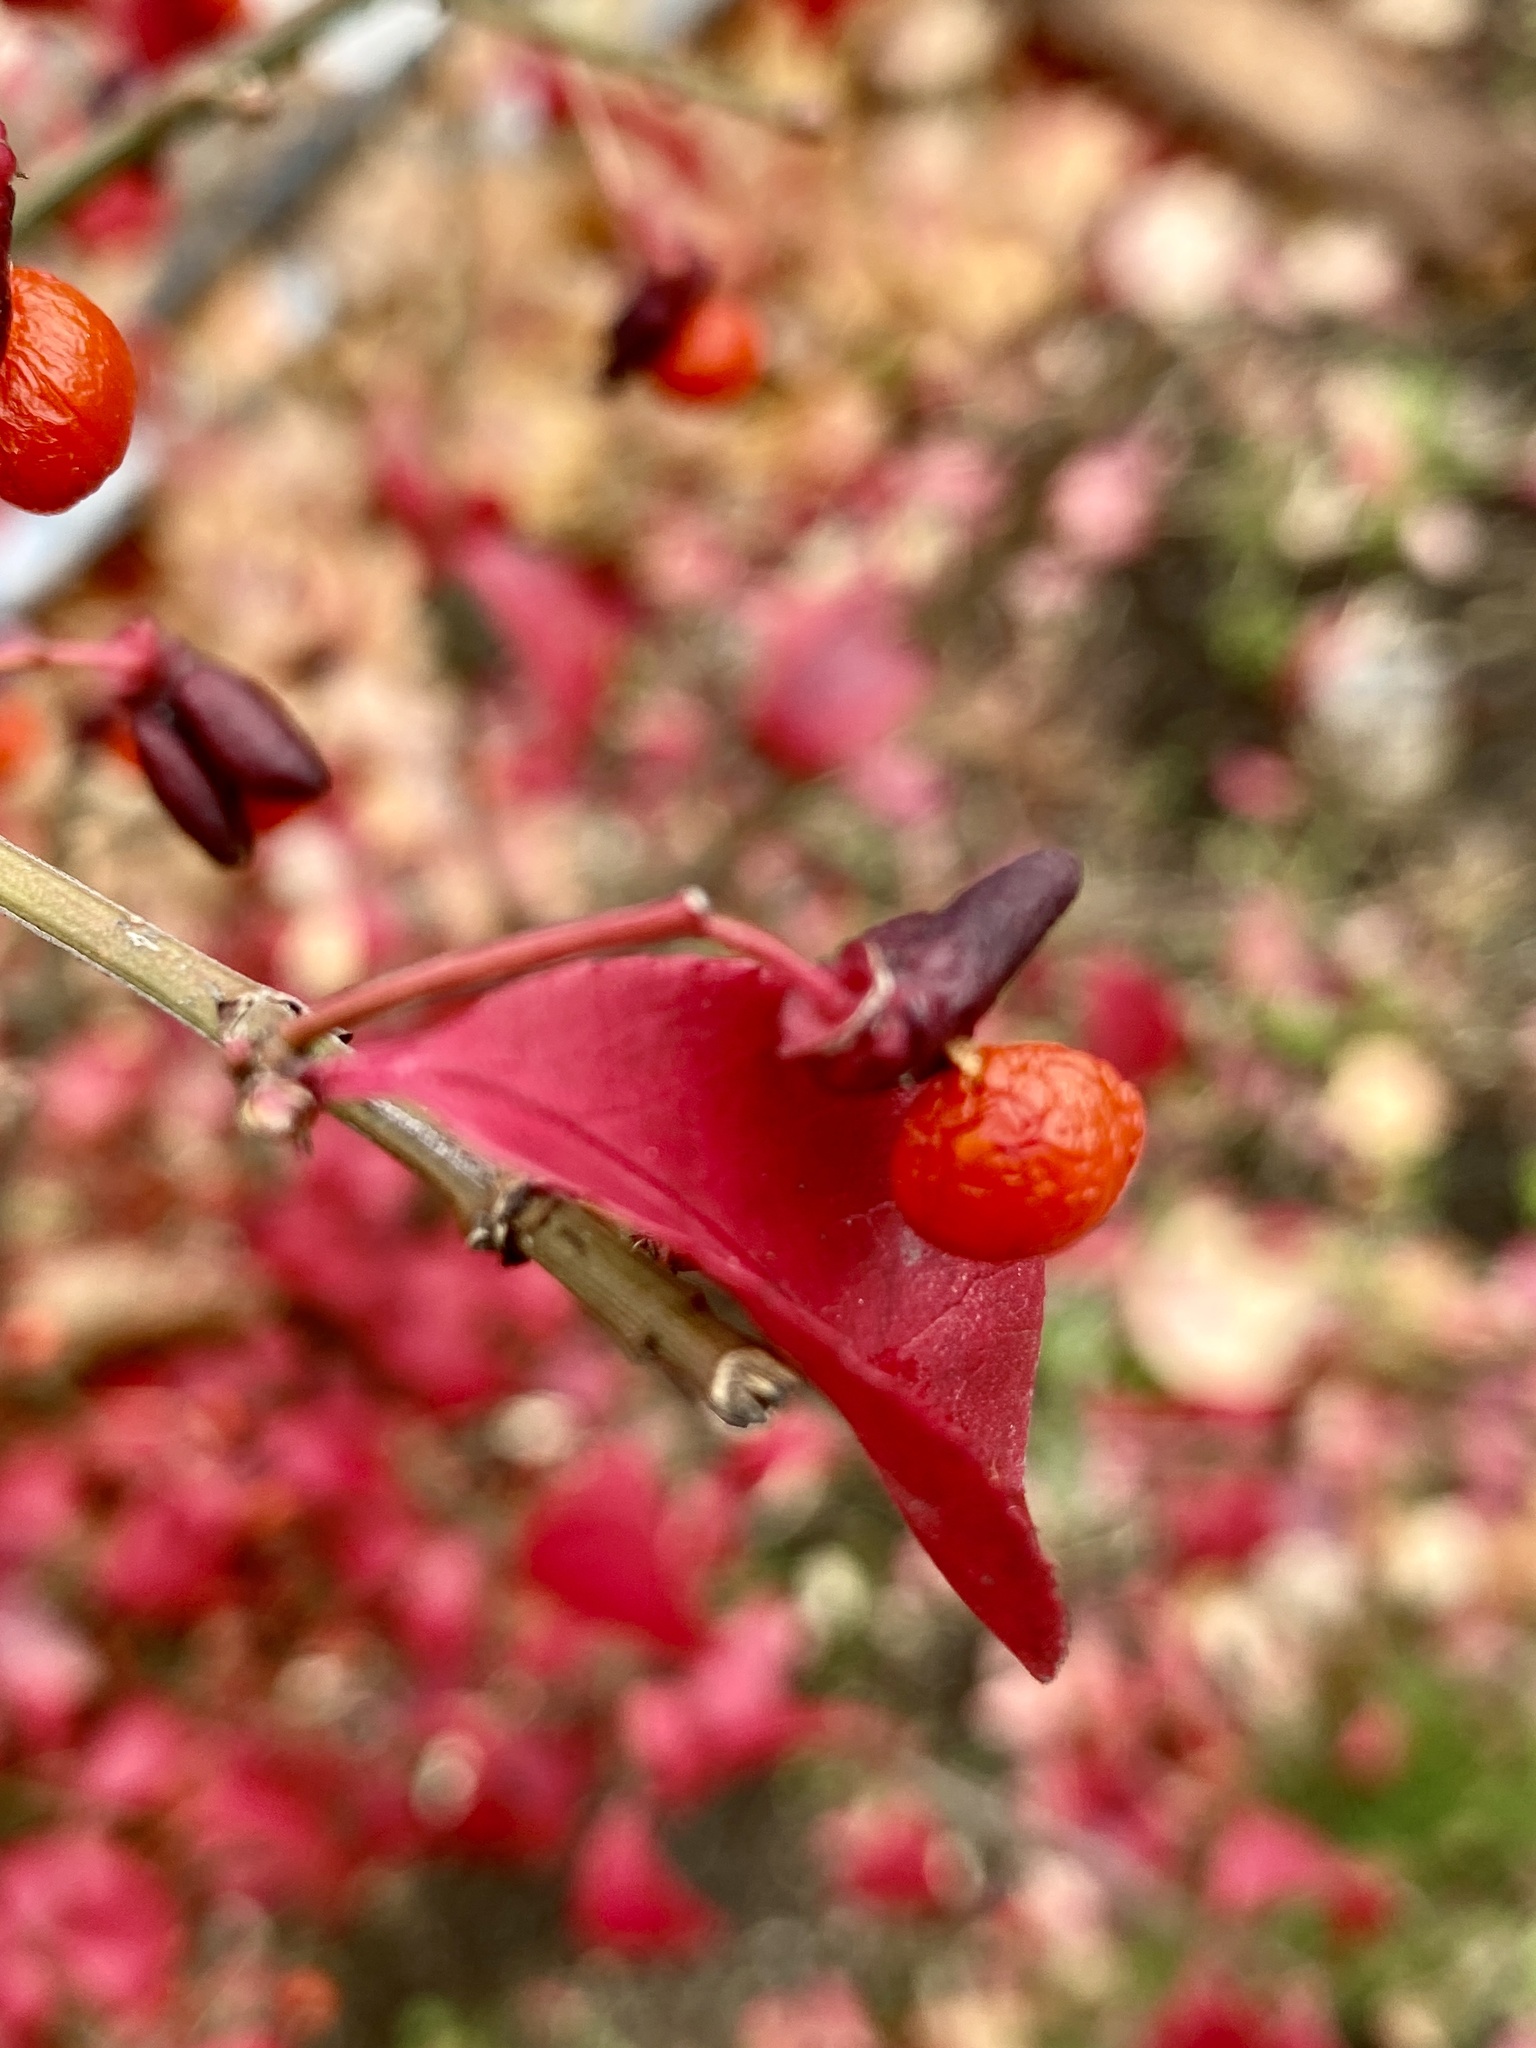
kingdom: Plantae
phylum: Tracheophyta
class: Magnoliopsida
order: Celastrales
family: Celastraceae
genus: Euonymus
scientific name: Euonymus alatus
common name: Winged euonymus
